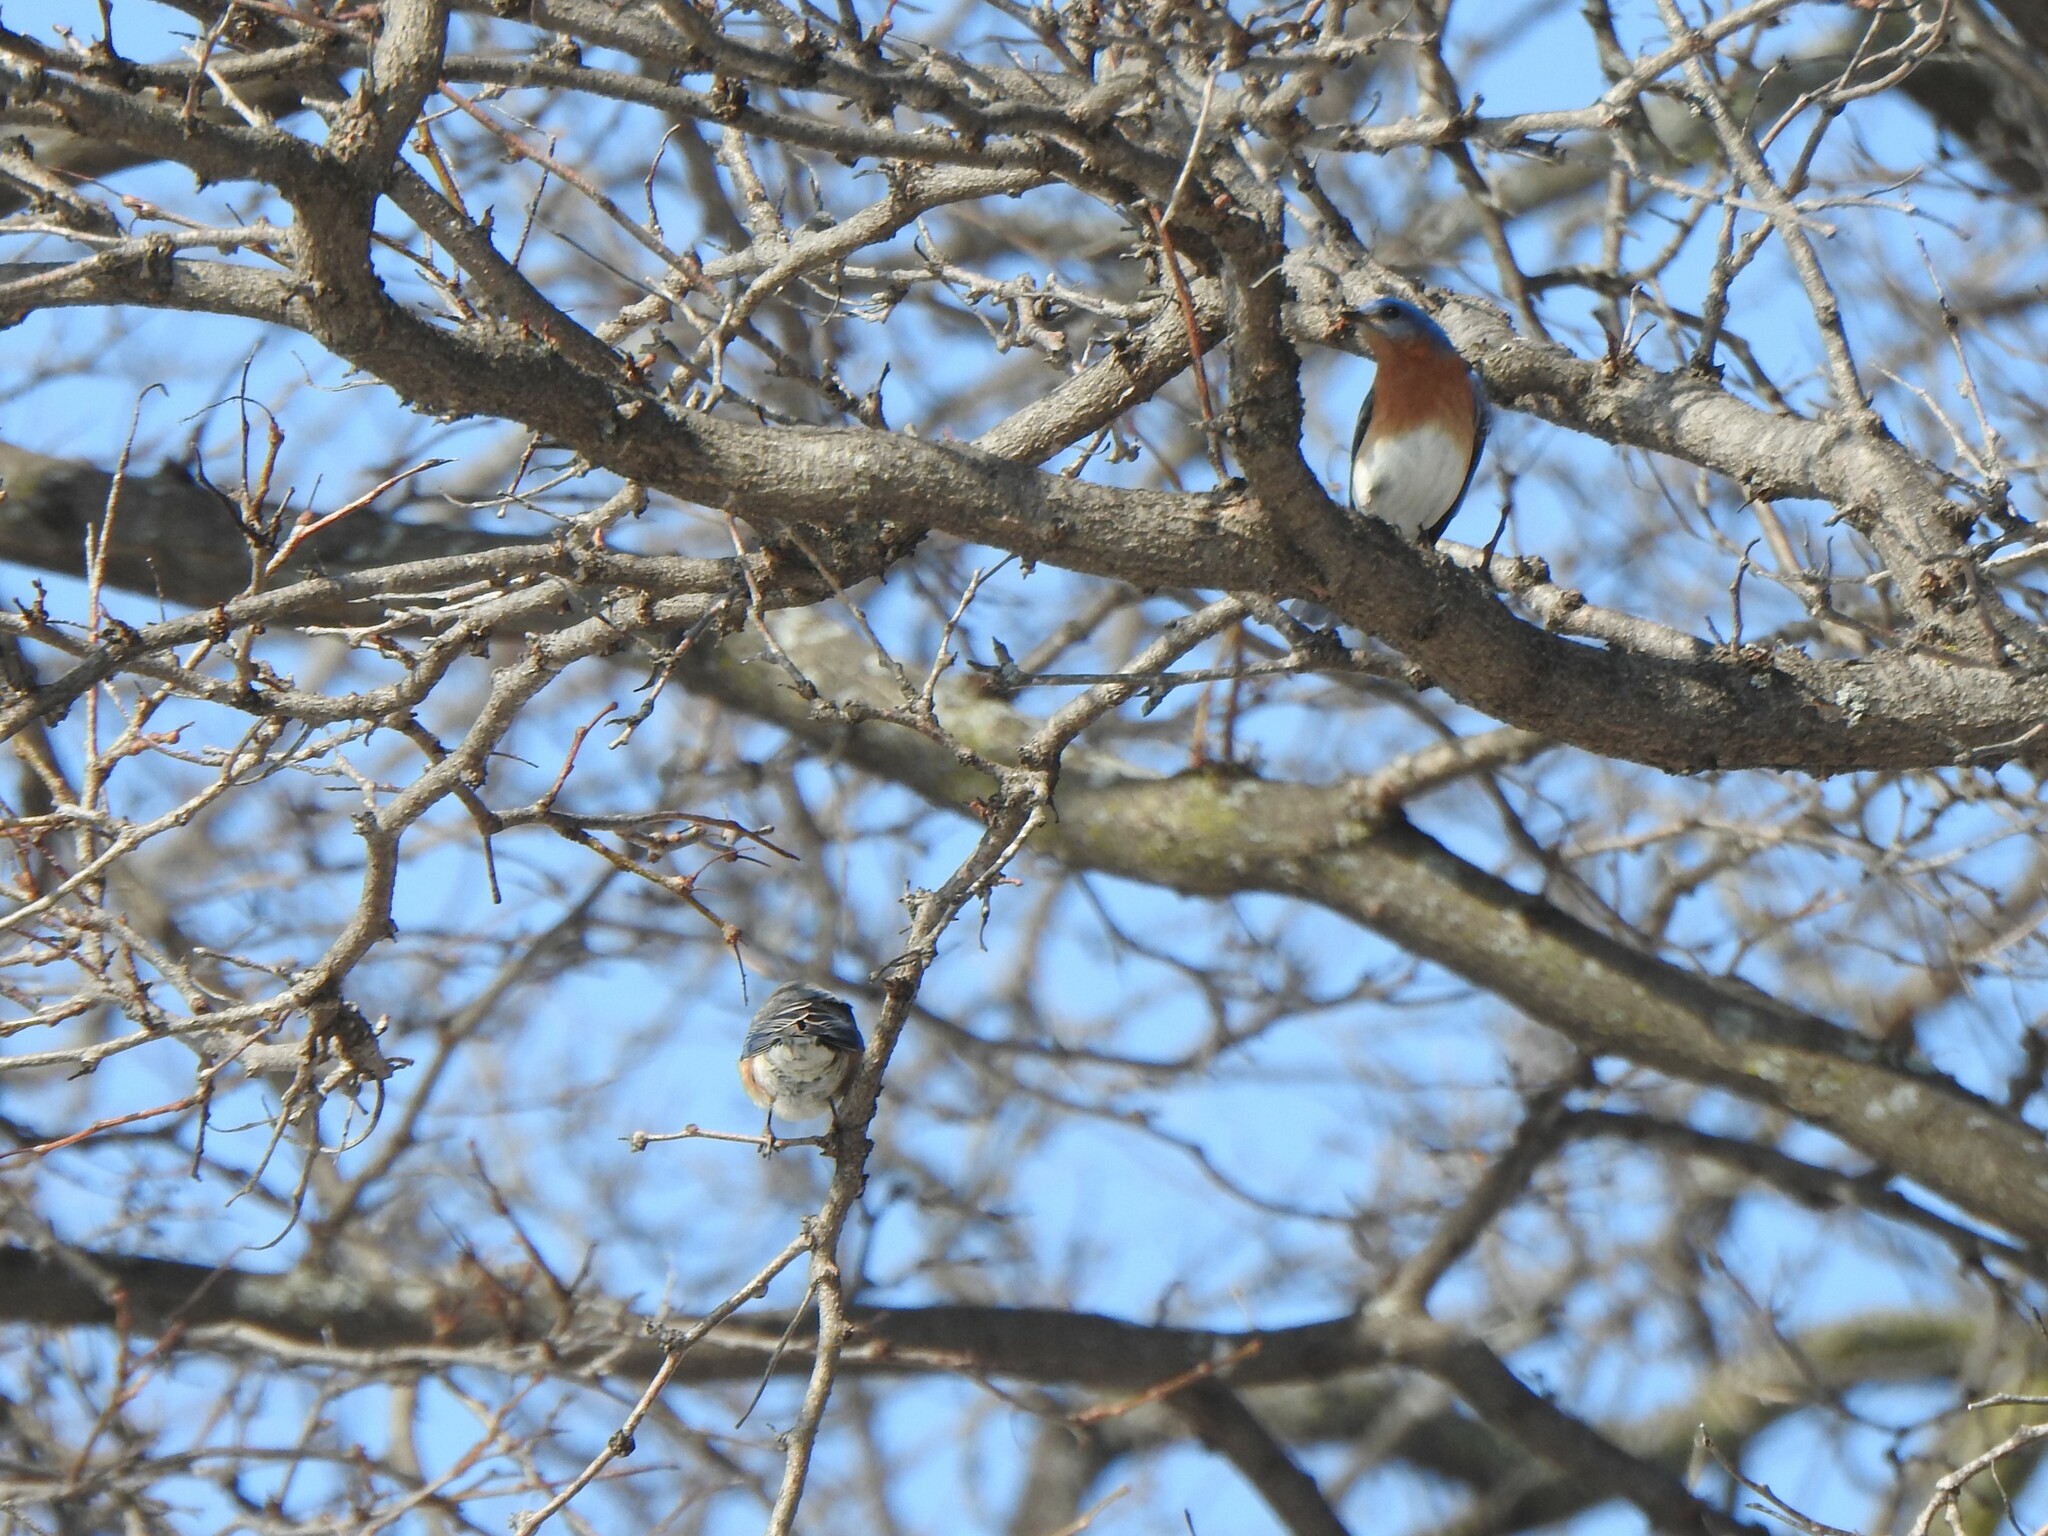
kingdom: Animalia
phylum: Chordata
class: Aves
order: Passeriformes
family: Turdidae
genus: Sialia
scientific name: Sialia sialis
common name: Eastern bluebird
